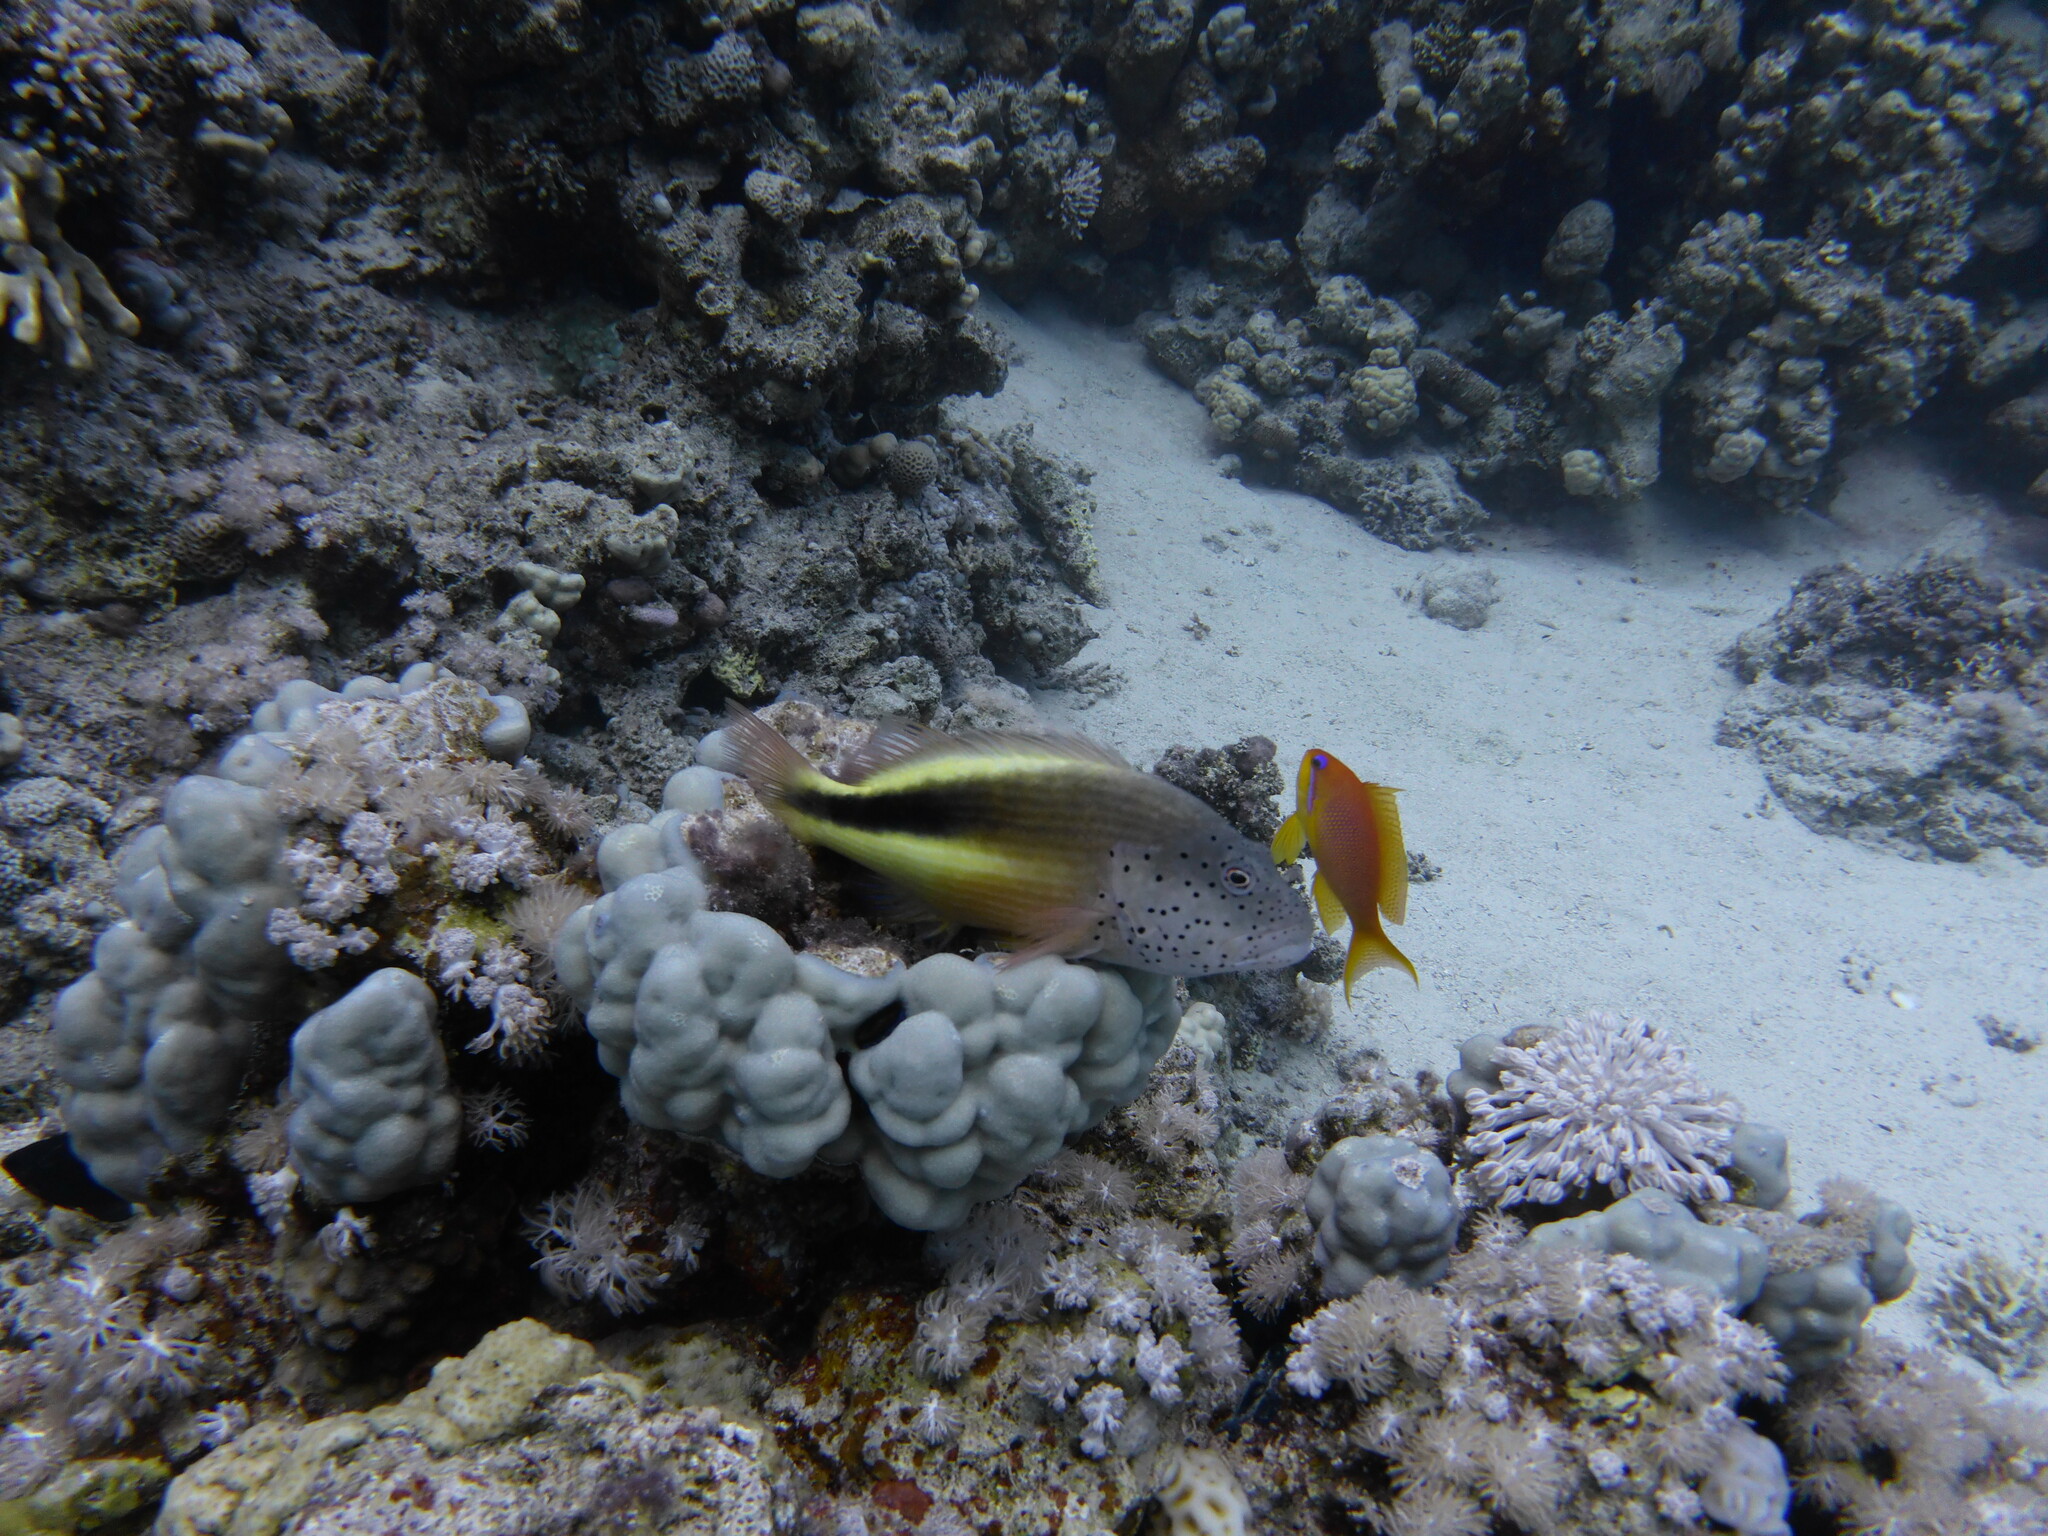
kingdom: Animalia
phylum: Chordata
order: Perciformes
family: Cirrhitidae
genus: Paracirrhites
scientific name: Paracirrhites forsteri
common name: Freckled hawkfish
